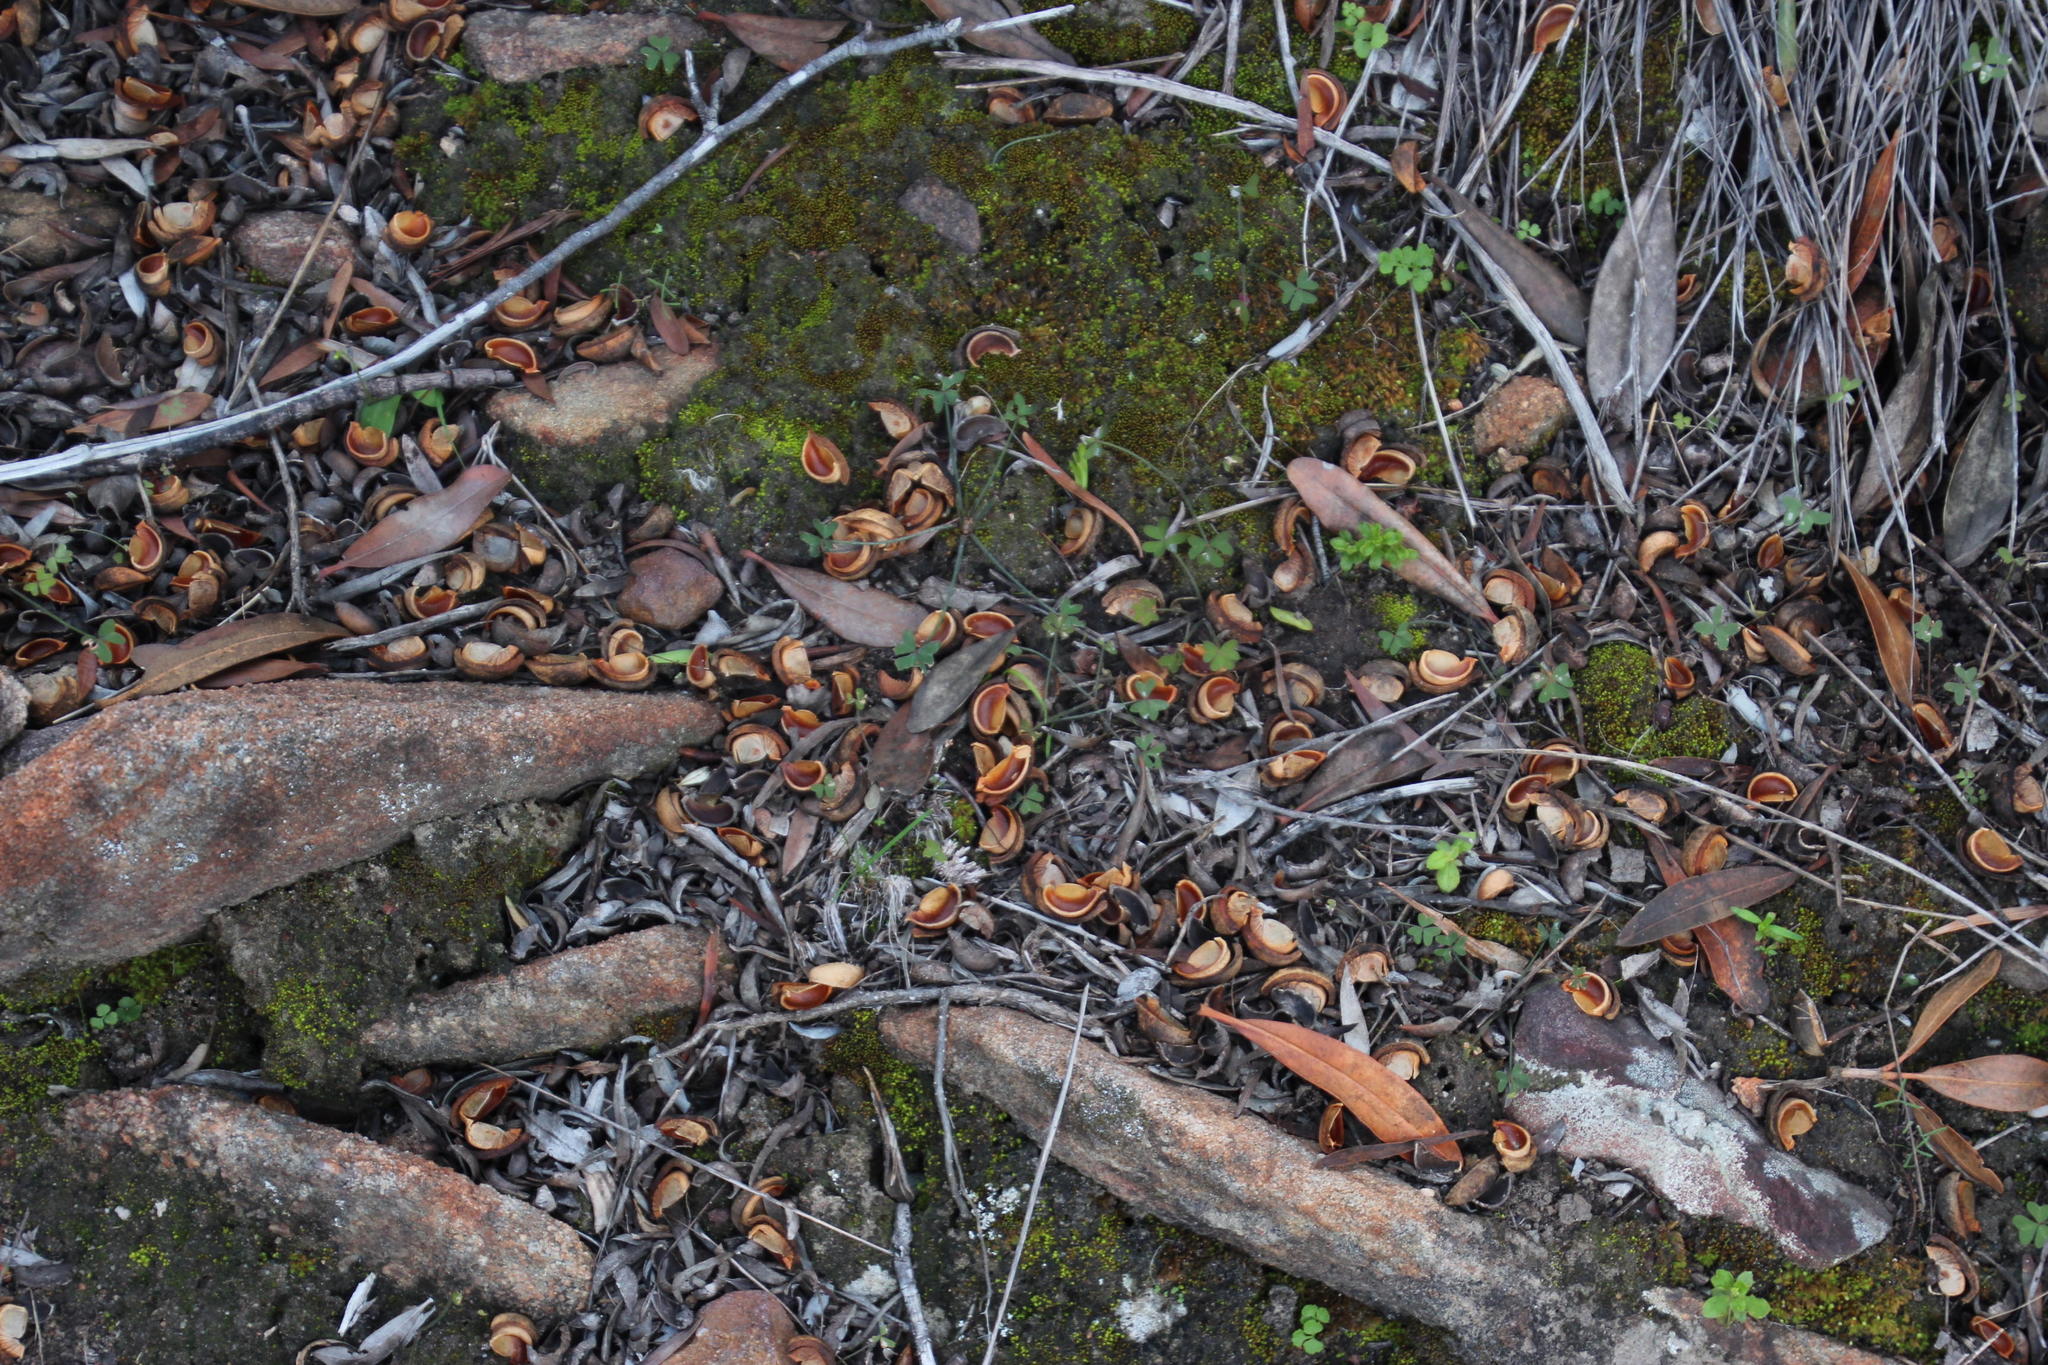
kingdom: Plantae
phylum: Tracheophyta
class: Magnoliopsida
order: Malpighiales
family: Picrodendraceae
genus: Hyaenanche
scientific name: Hyaenanche globosa
